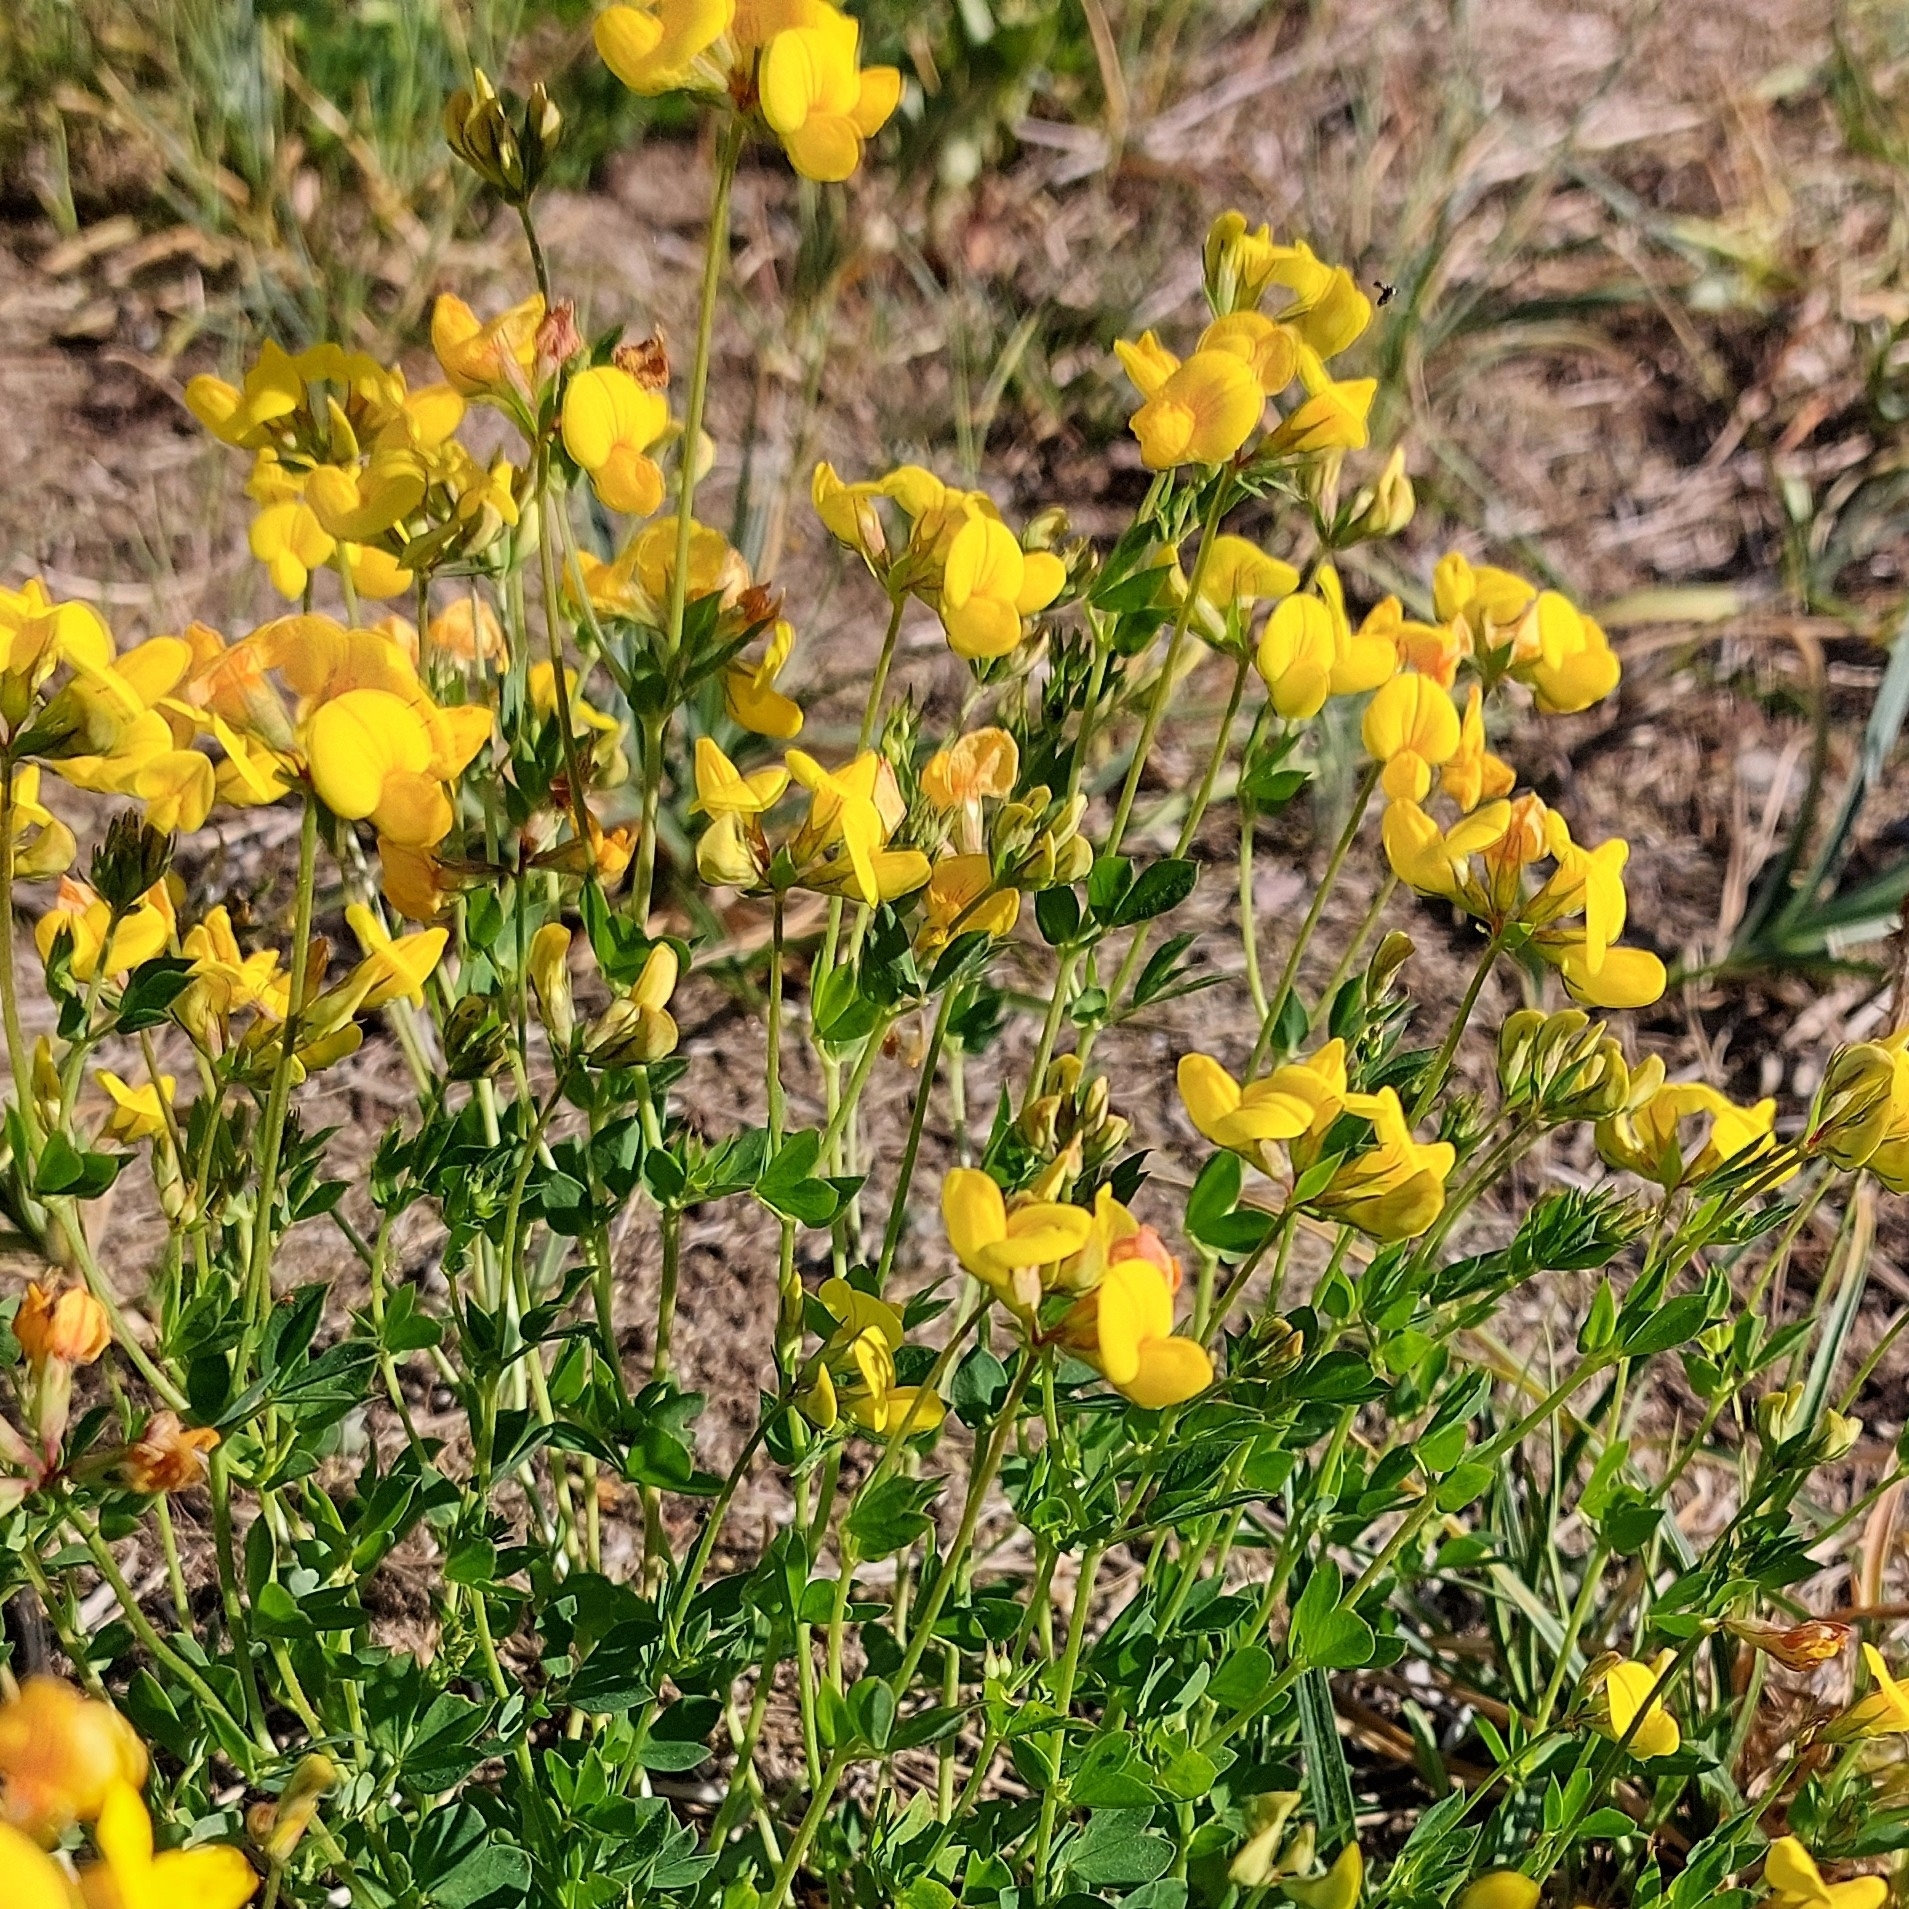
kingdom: Plantae
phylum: Tracheophyta
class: Magnoliopsida
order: Fabales
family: Fabaceae
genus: Lotus
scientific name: Lotus corniculatus
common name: Common bird's-foot-trefoil
